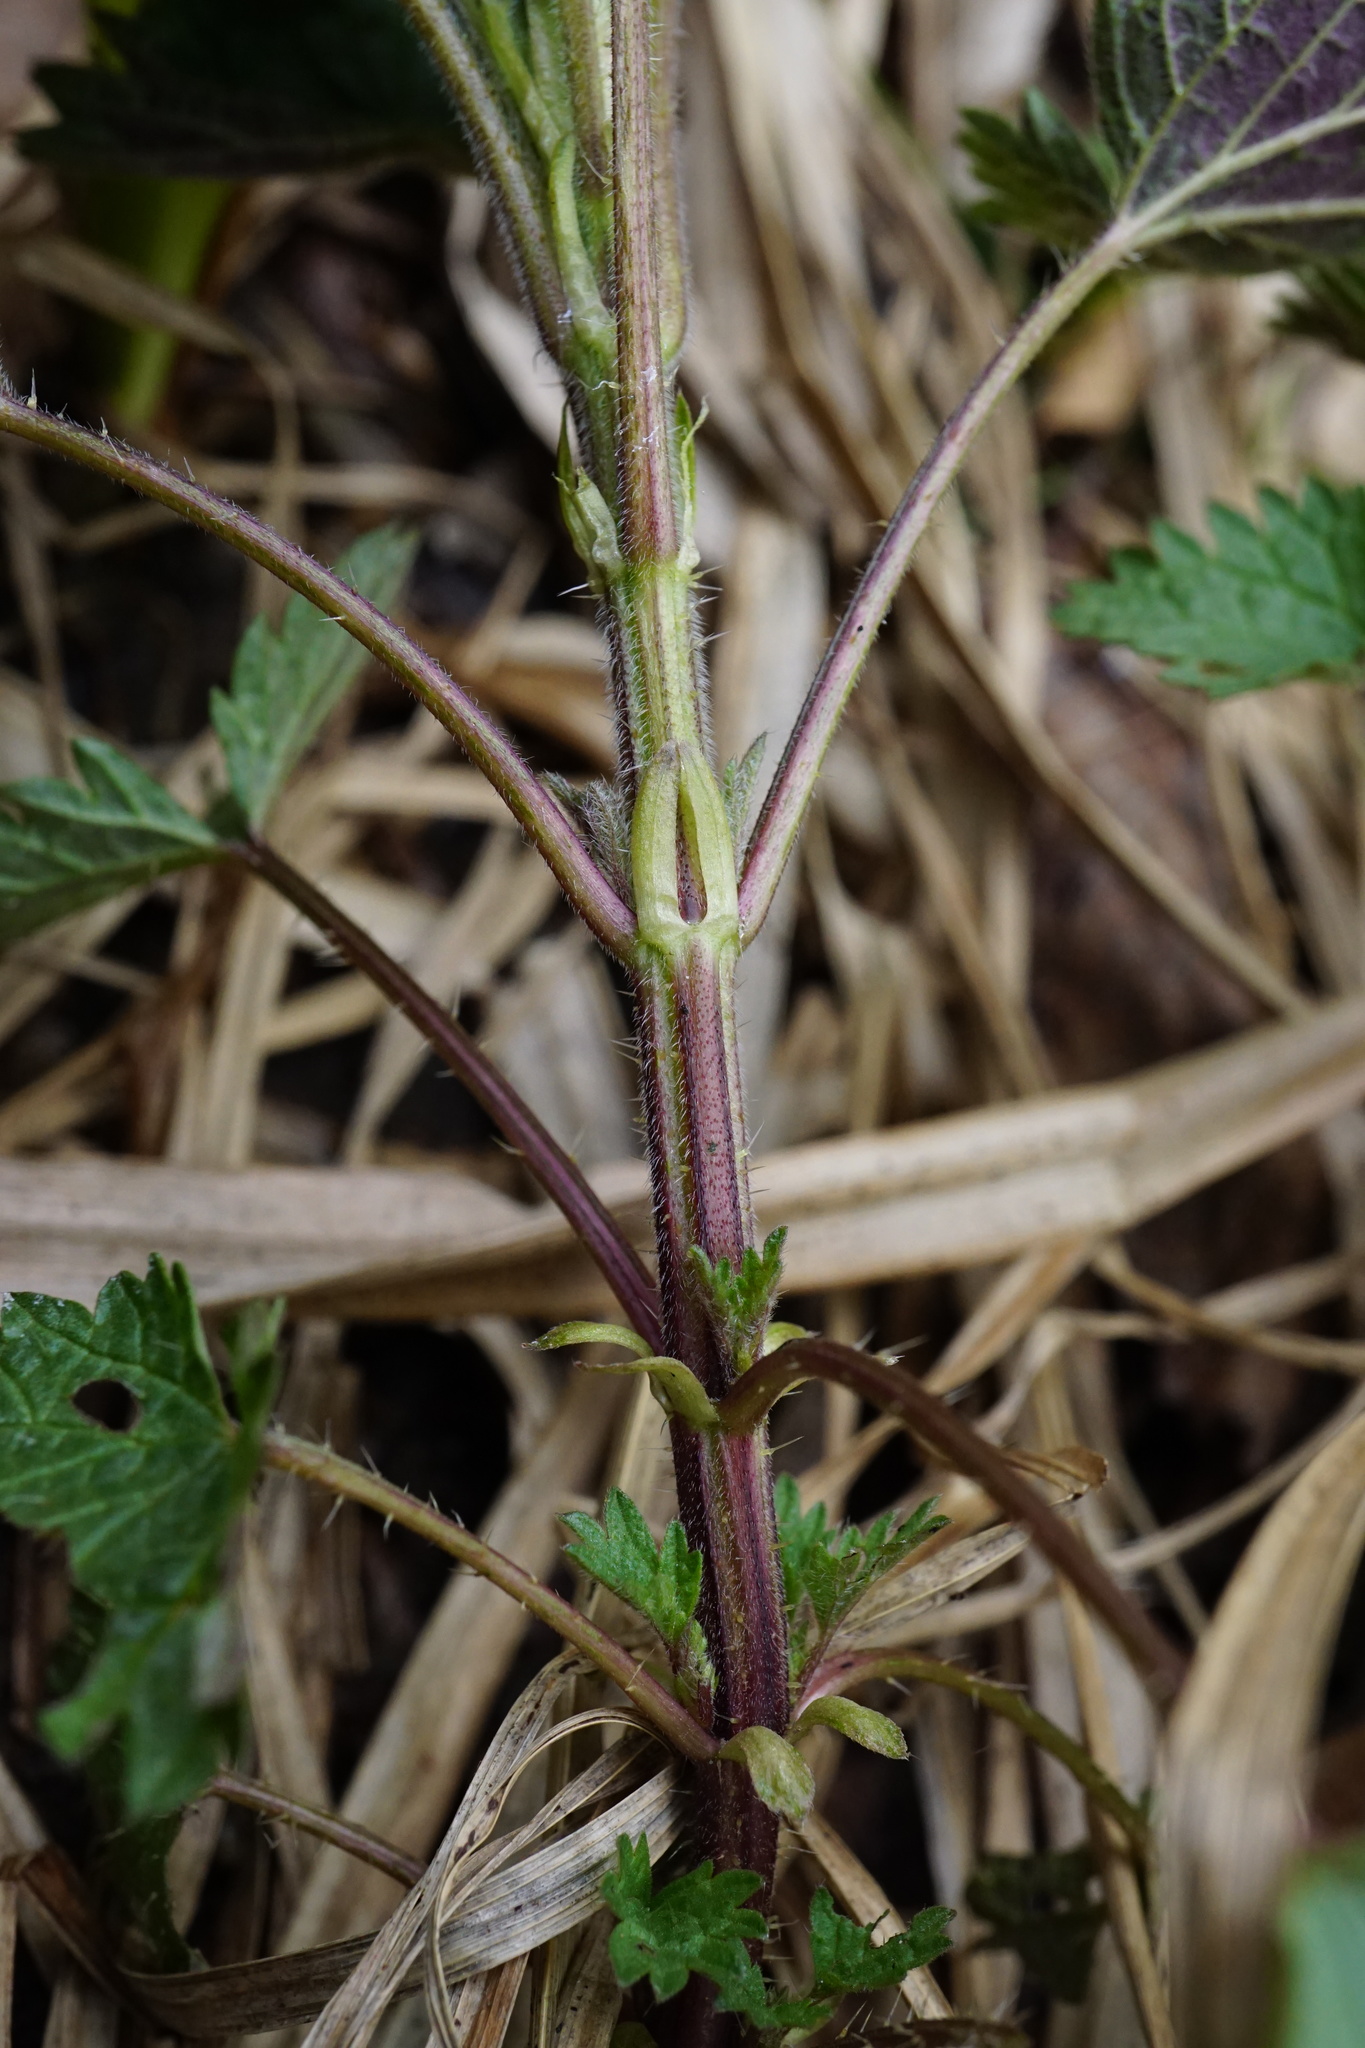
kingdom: Plantae
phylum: Tracheophyta
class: Magnoliopsida
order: Rosales
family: Urticaceae
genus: Urtica
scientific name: Urtica dioica
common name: Common nettle
